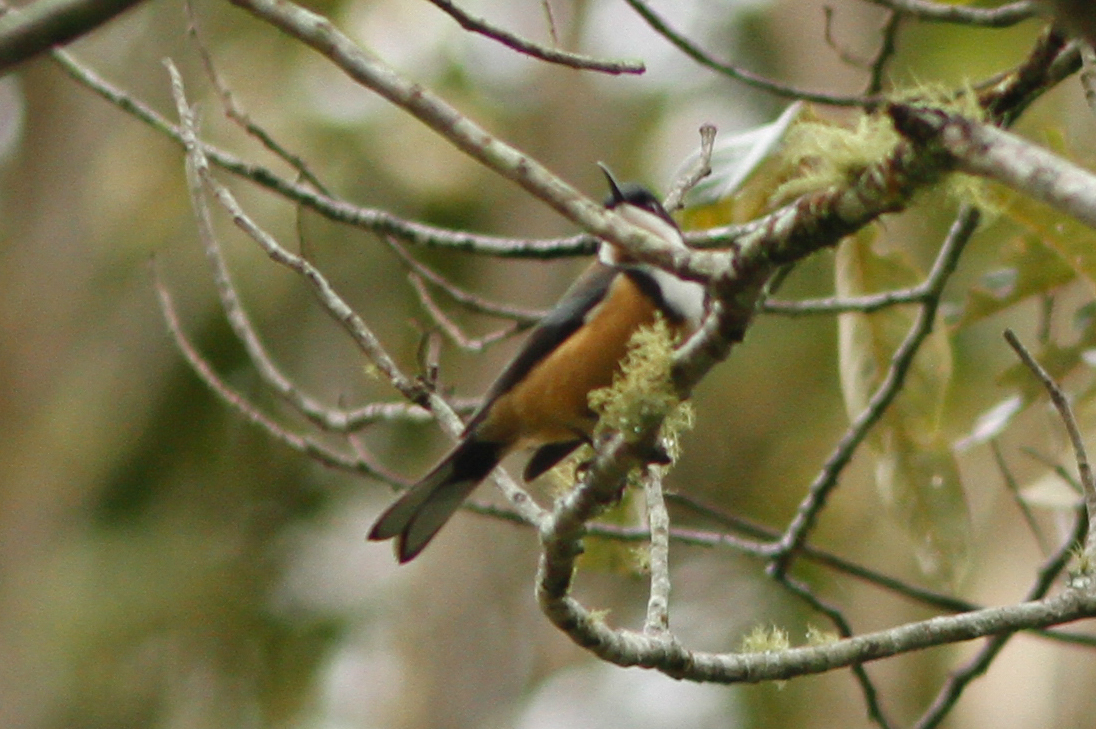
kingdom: Animalia
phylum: Chordata
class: Aves
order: Passeriformes
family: Meliphagidae
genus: Acanthorhynchus
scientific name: Acanthorhynchus tenuirostris
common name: Eastern spinebill
